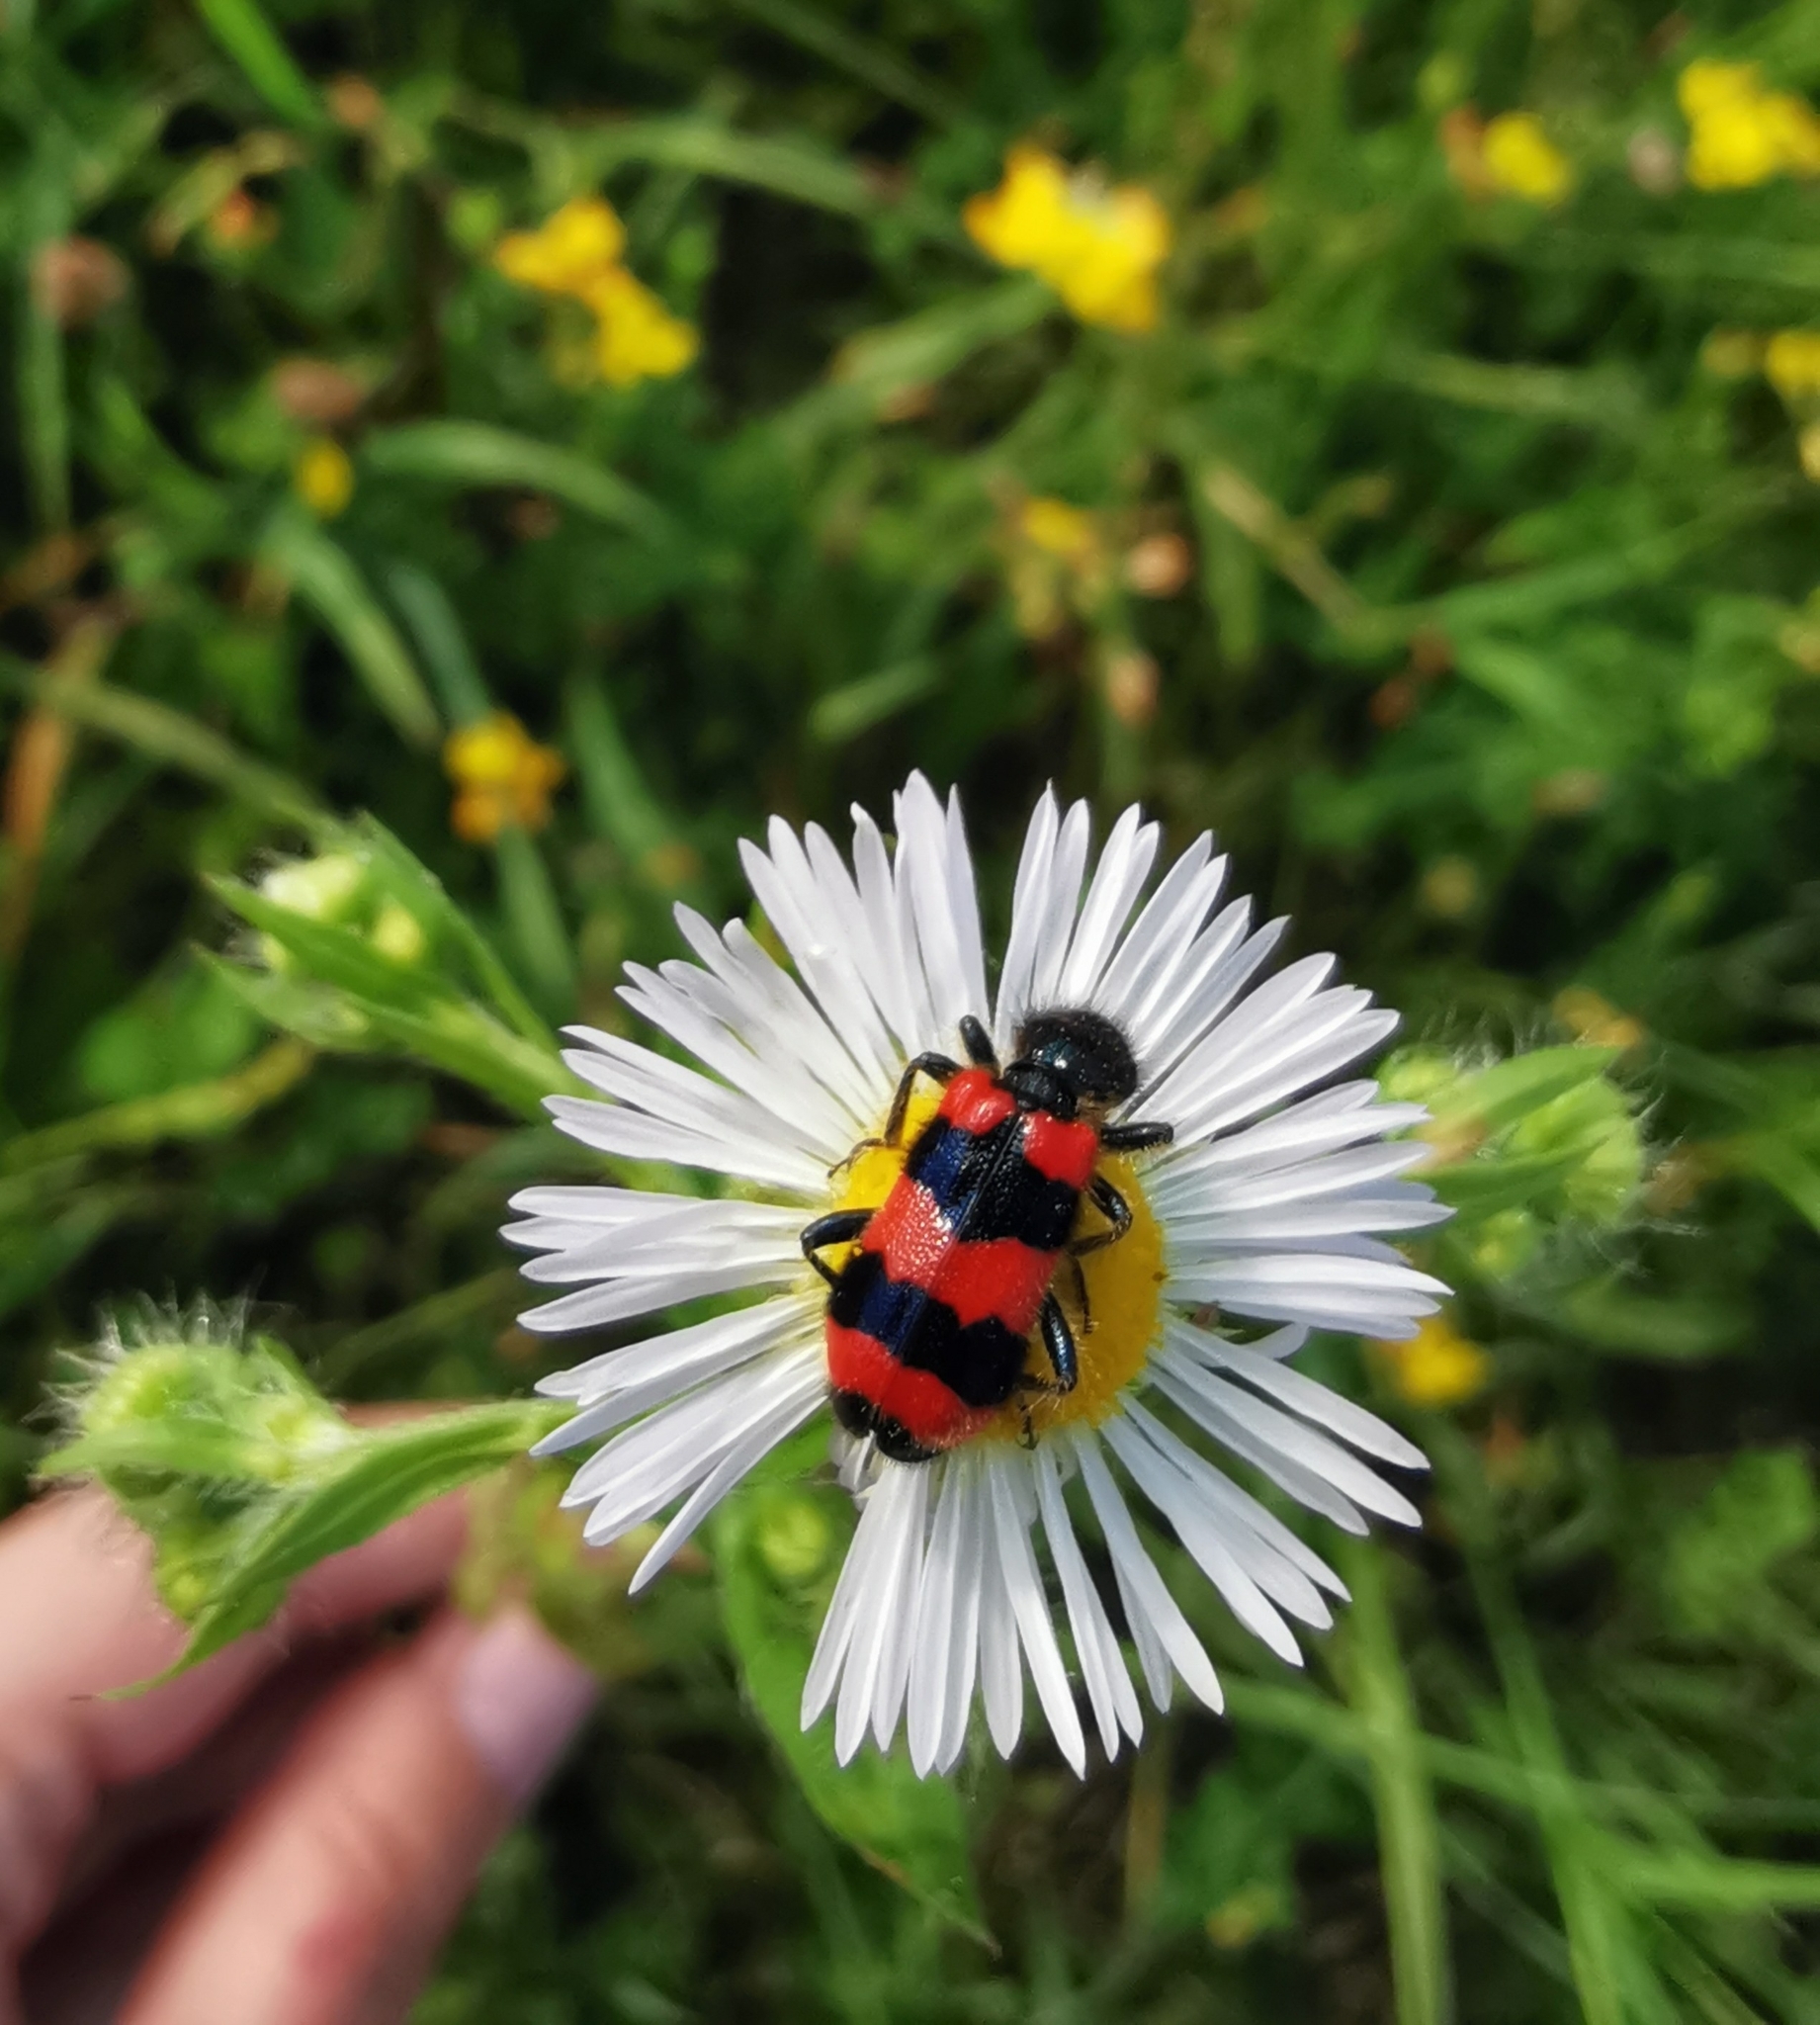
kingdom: Animalia
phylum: Arthropoda
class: Insecta
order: Coleoptera
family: Cleridae
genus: Trichodes
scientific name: Trichodes apiarius
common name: Bee-eating beetle
